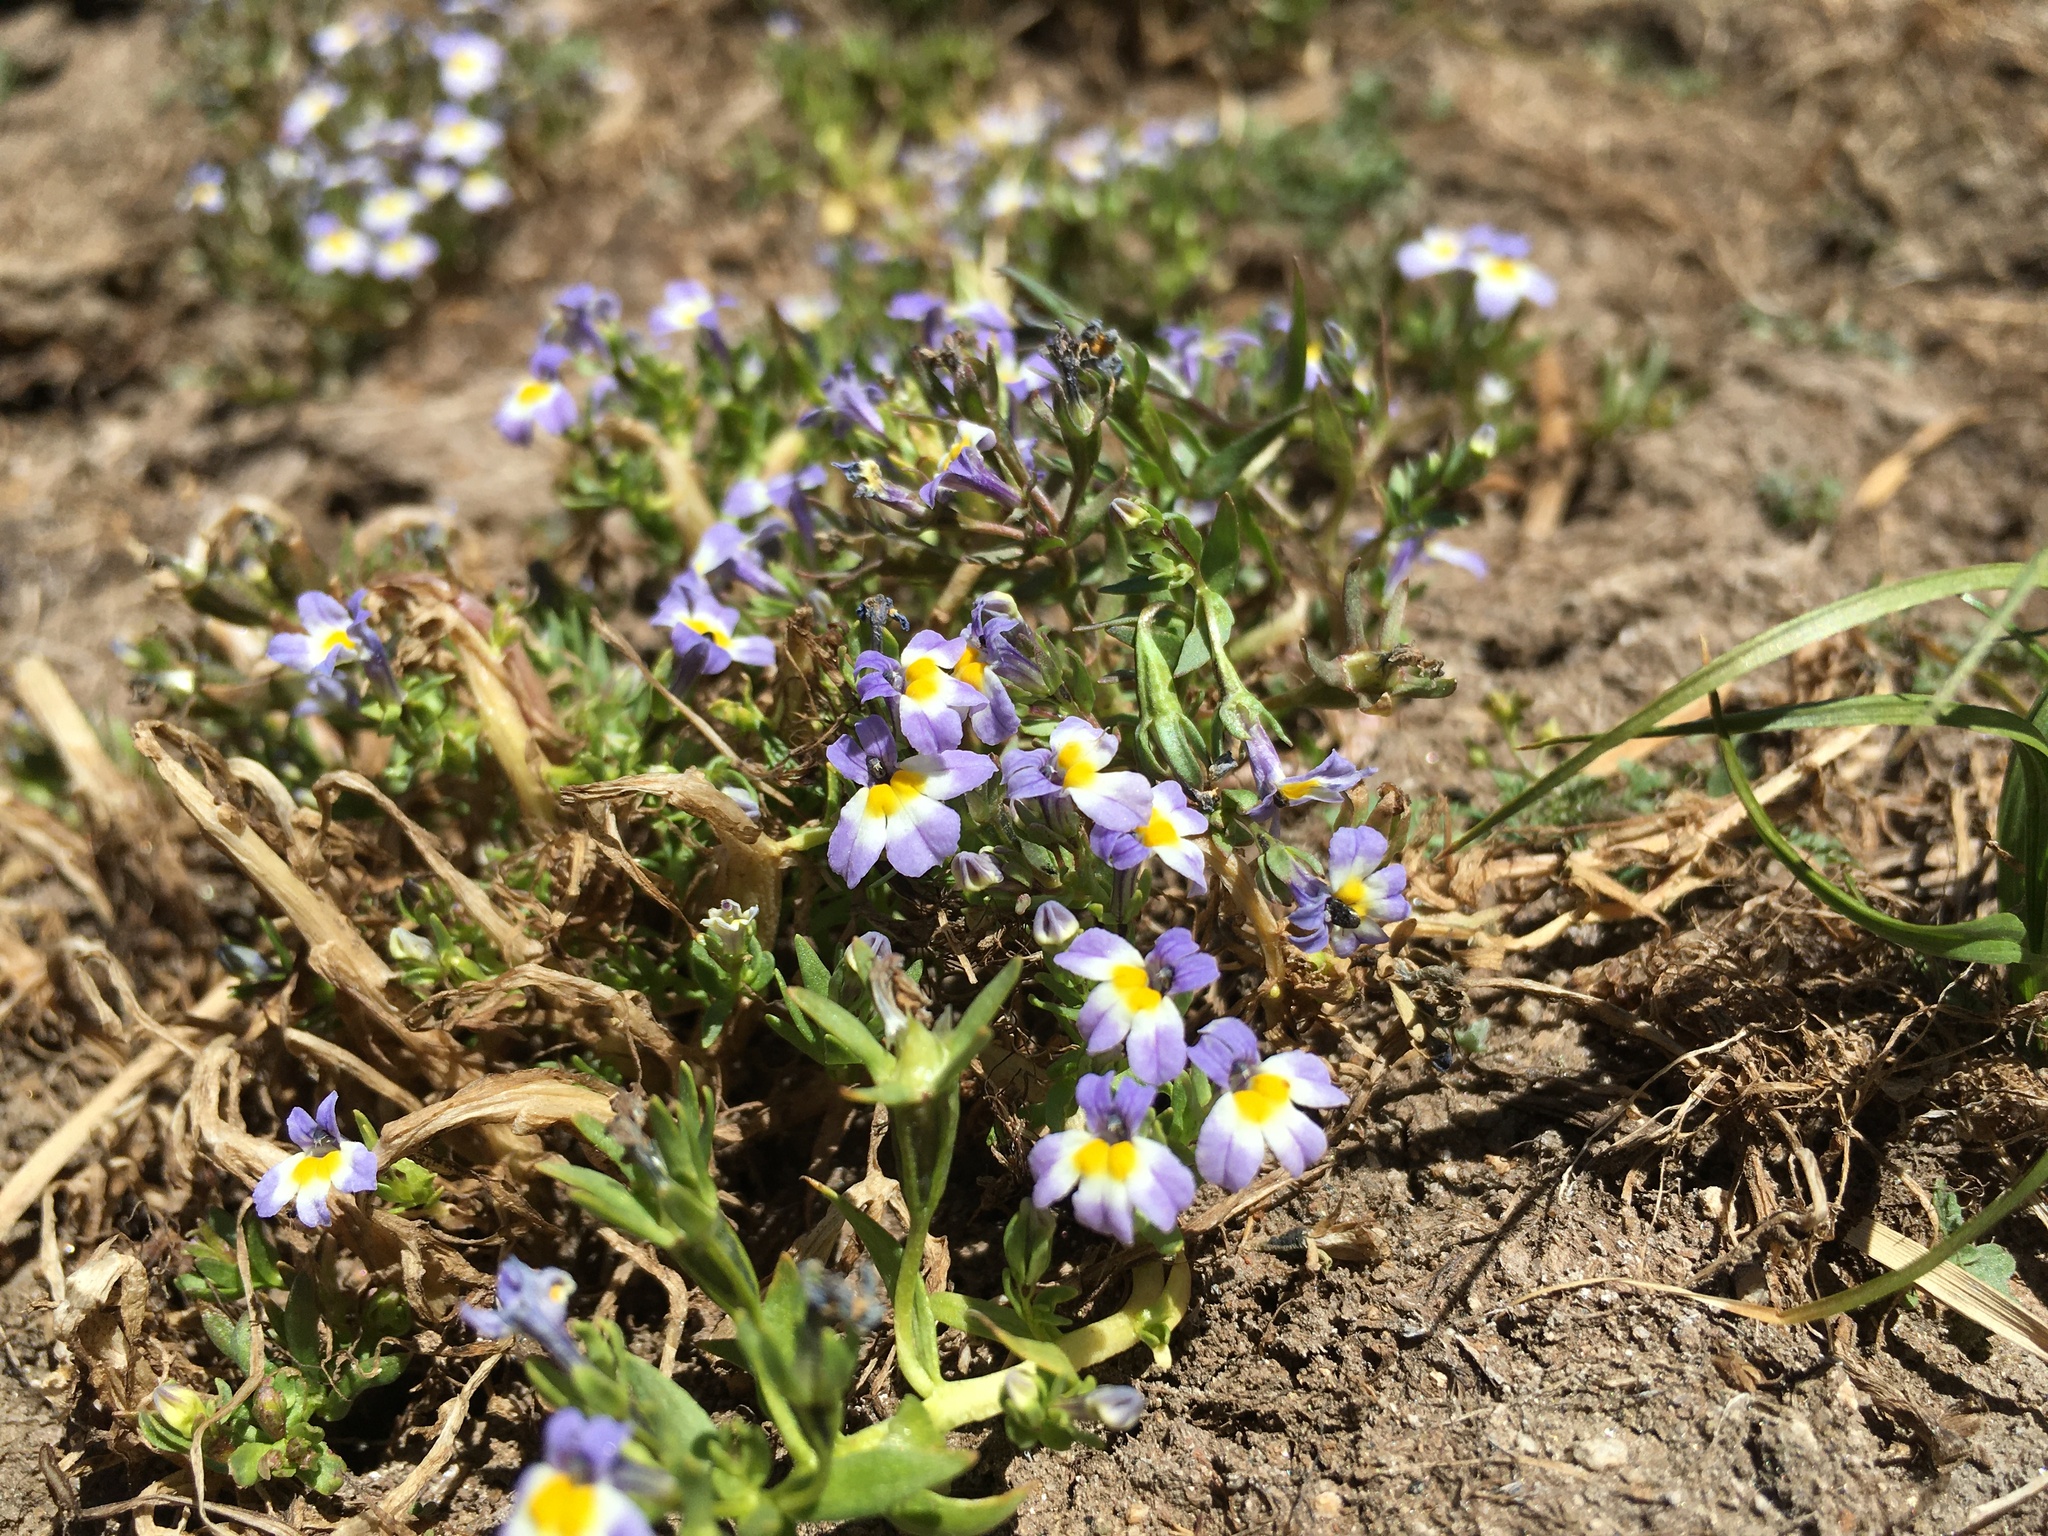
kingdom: Plantae
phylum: Tracheophyta
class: Magnoliopsida
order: Asterales
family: Campanulaceae
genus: Porterella
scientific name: Porterella carnosula
